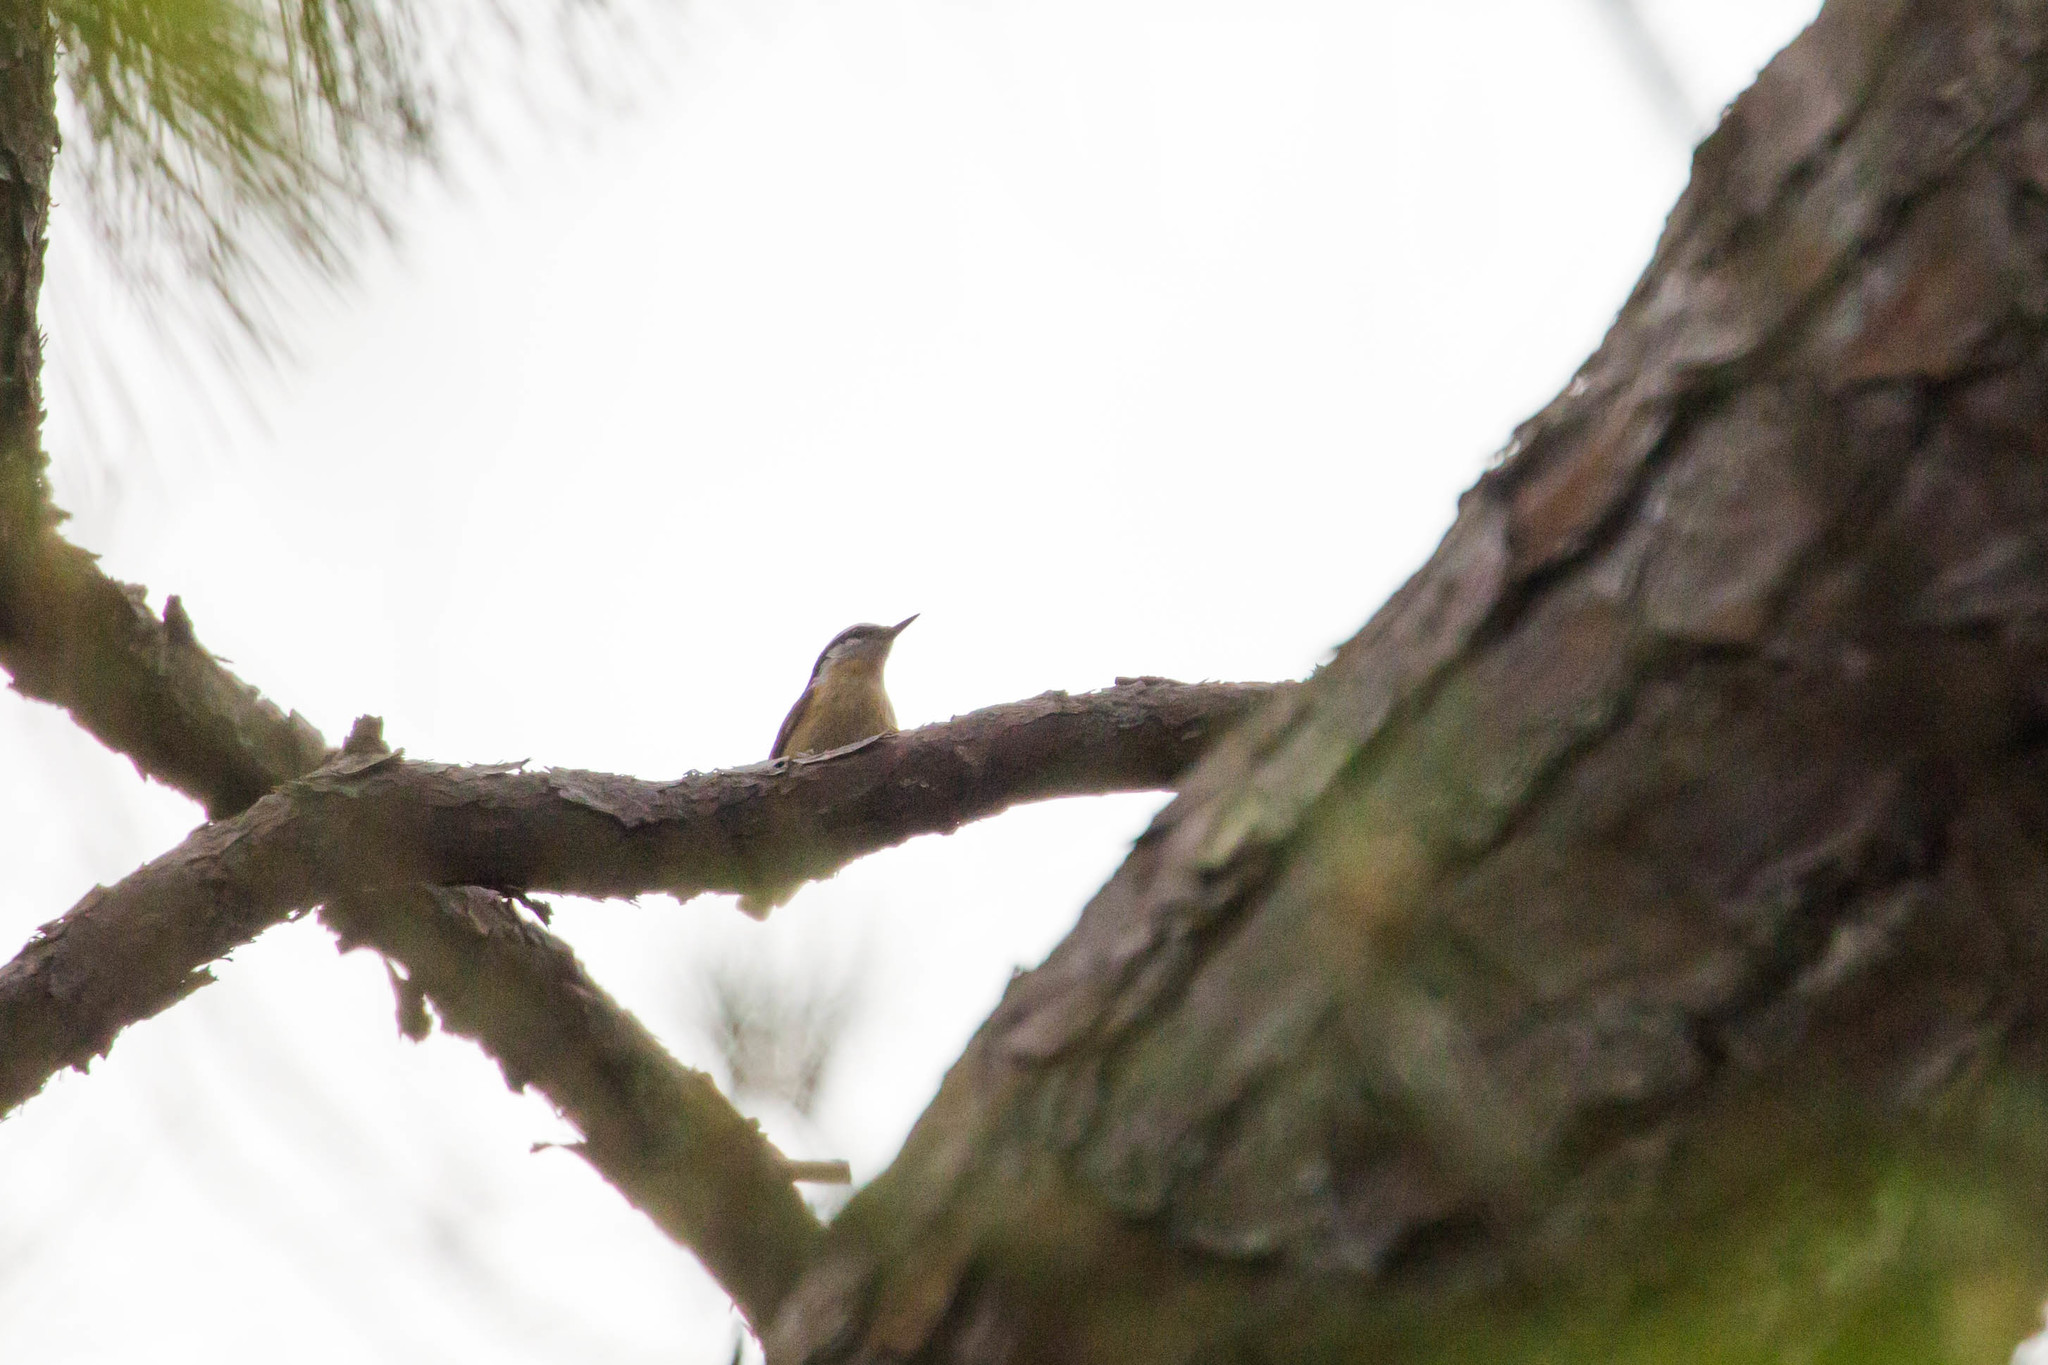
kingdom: Animalia
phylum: Chordata
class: Aves
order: Passeriformes
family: Sittidae
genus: Sitta
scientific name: Sitta canadensis
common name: Red-breasted nuthatch
